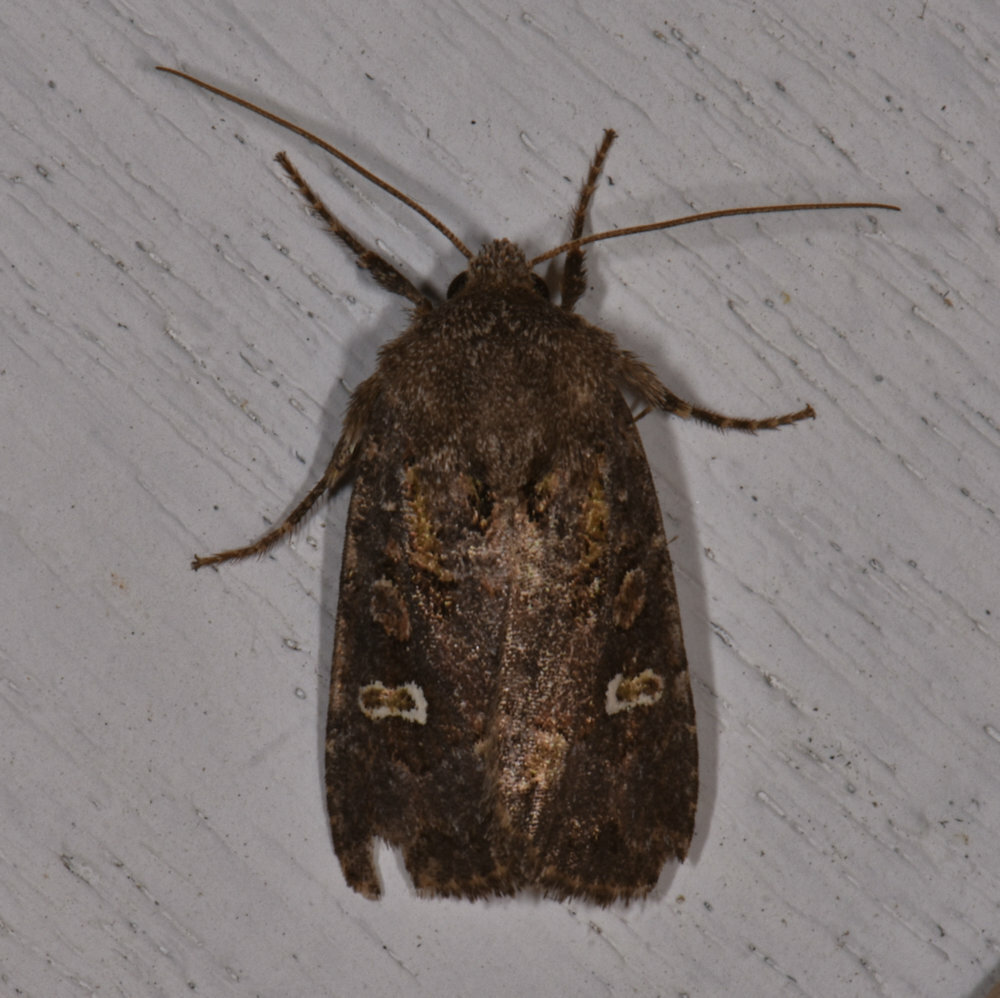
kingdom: Animalia
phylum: Arthropoda
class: Insecta
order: Lepidoptera
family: Noctuidae
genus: Lacinipolia
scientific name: Lacinipolia renigera
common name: Kidney-spotted minor
